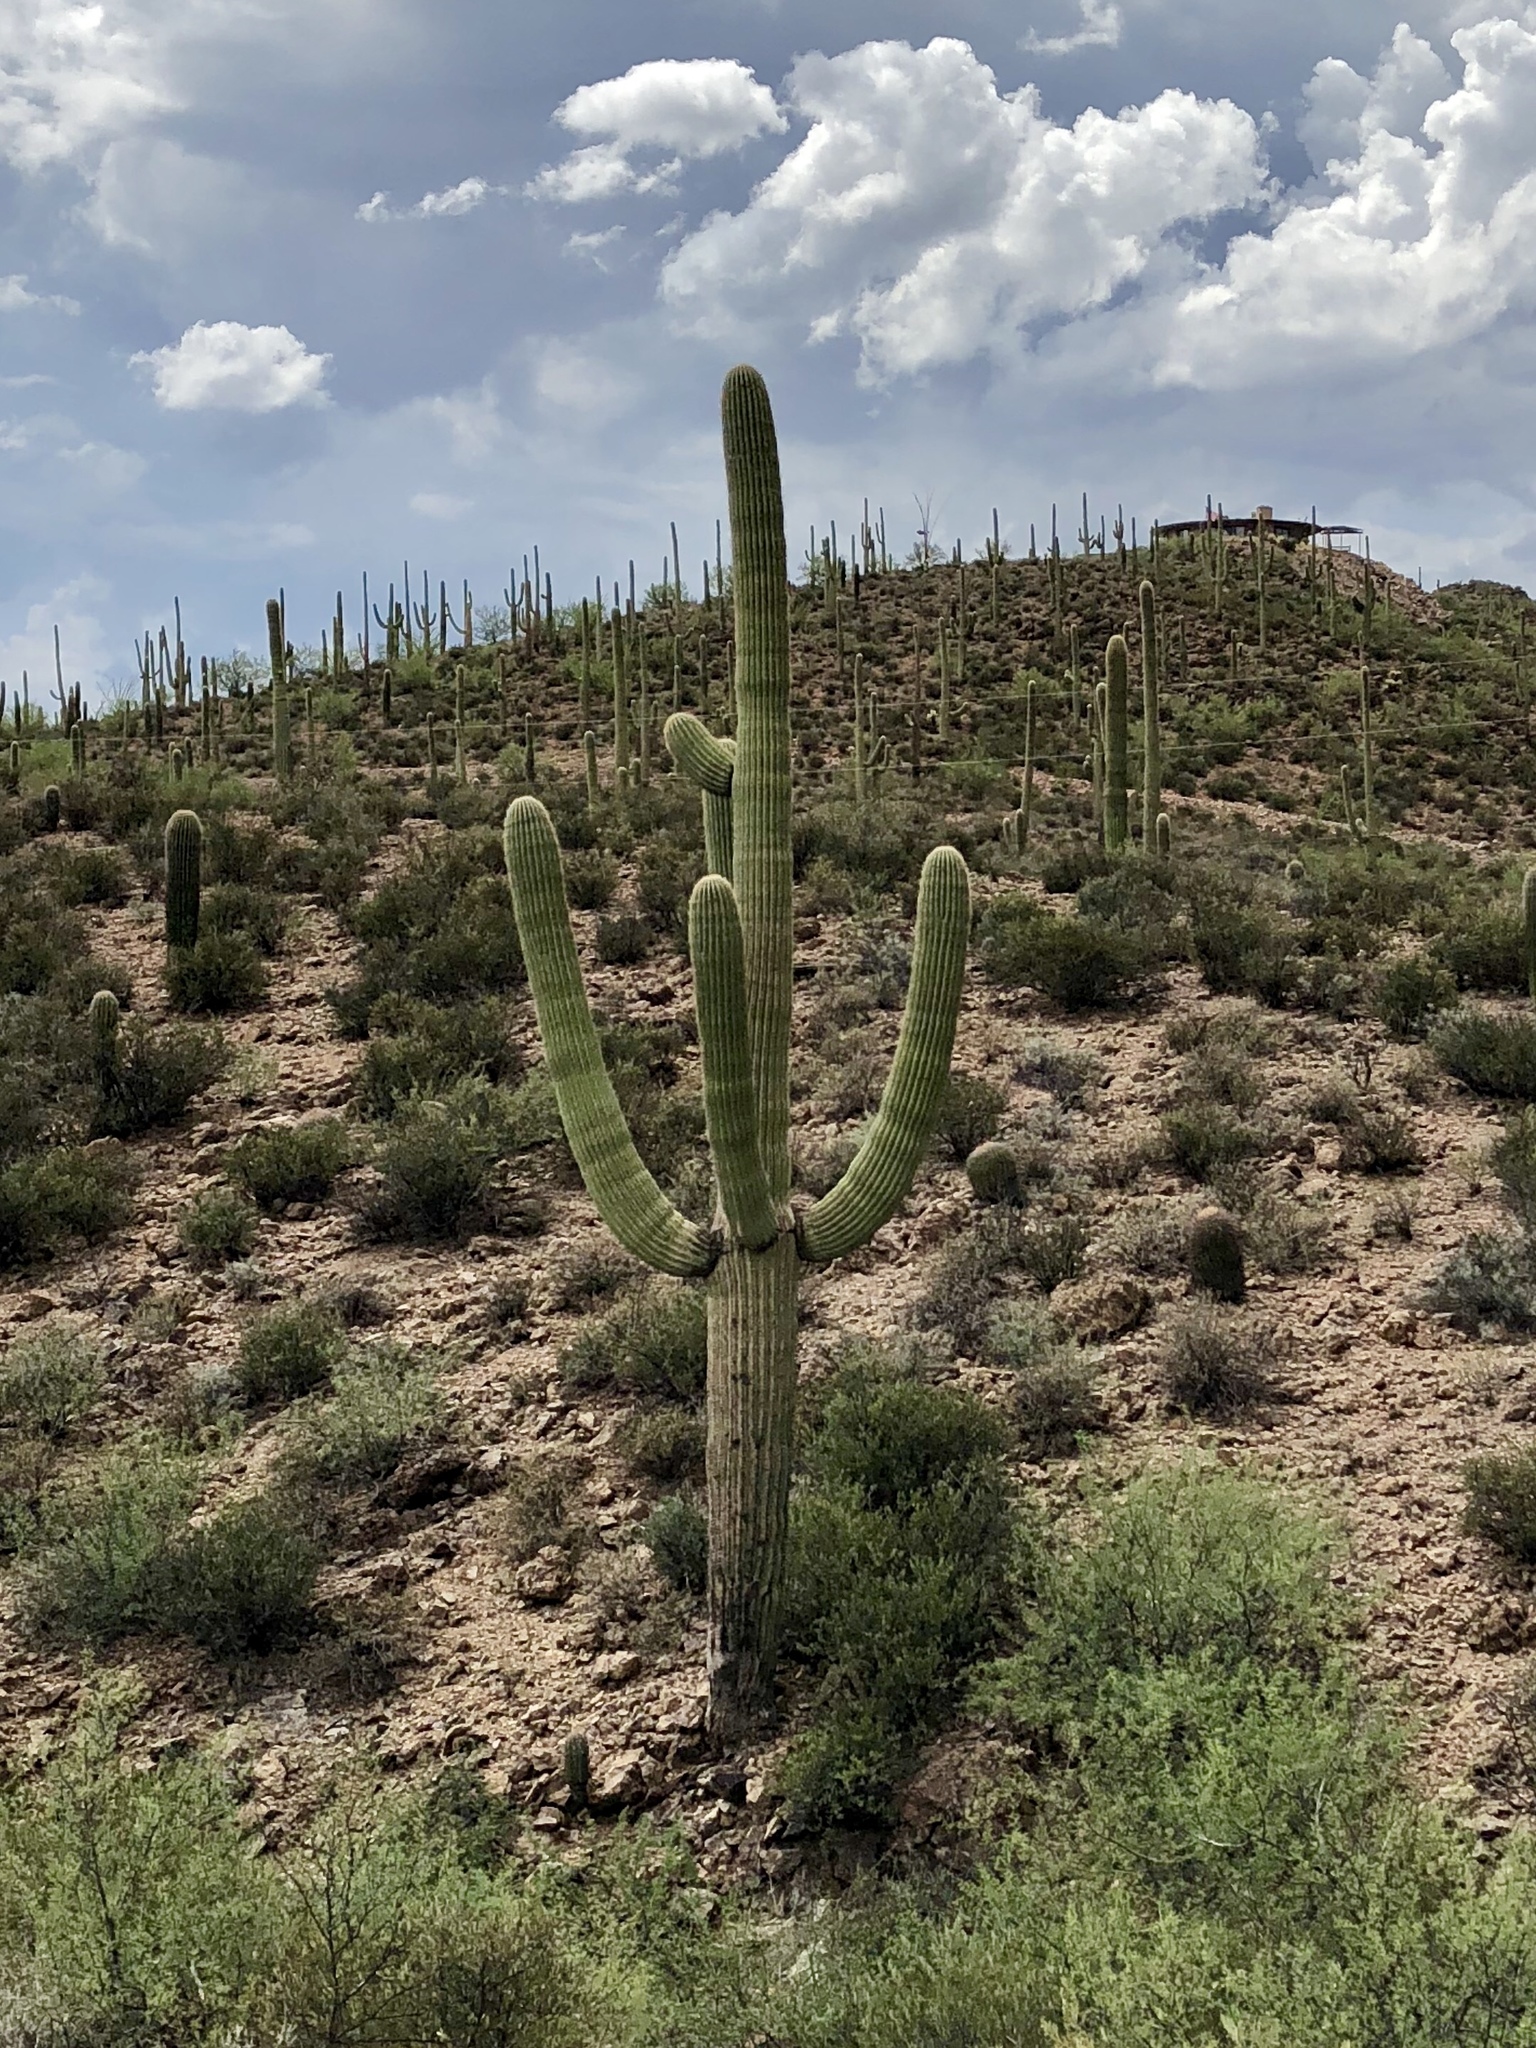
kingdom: Plantae
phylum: Tracheophyta
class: Magnoliopsida
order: Caryophyllales
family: Cactaceae
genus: Carnegiea
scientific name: Carnegiea gigantea
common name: Saguaro
